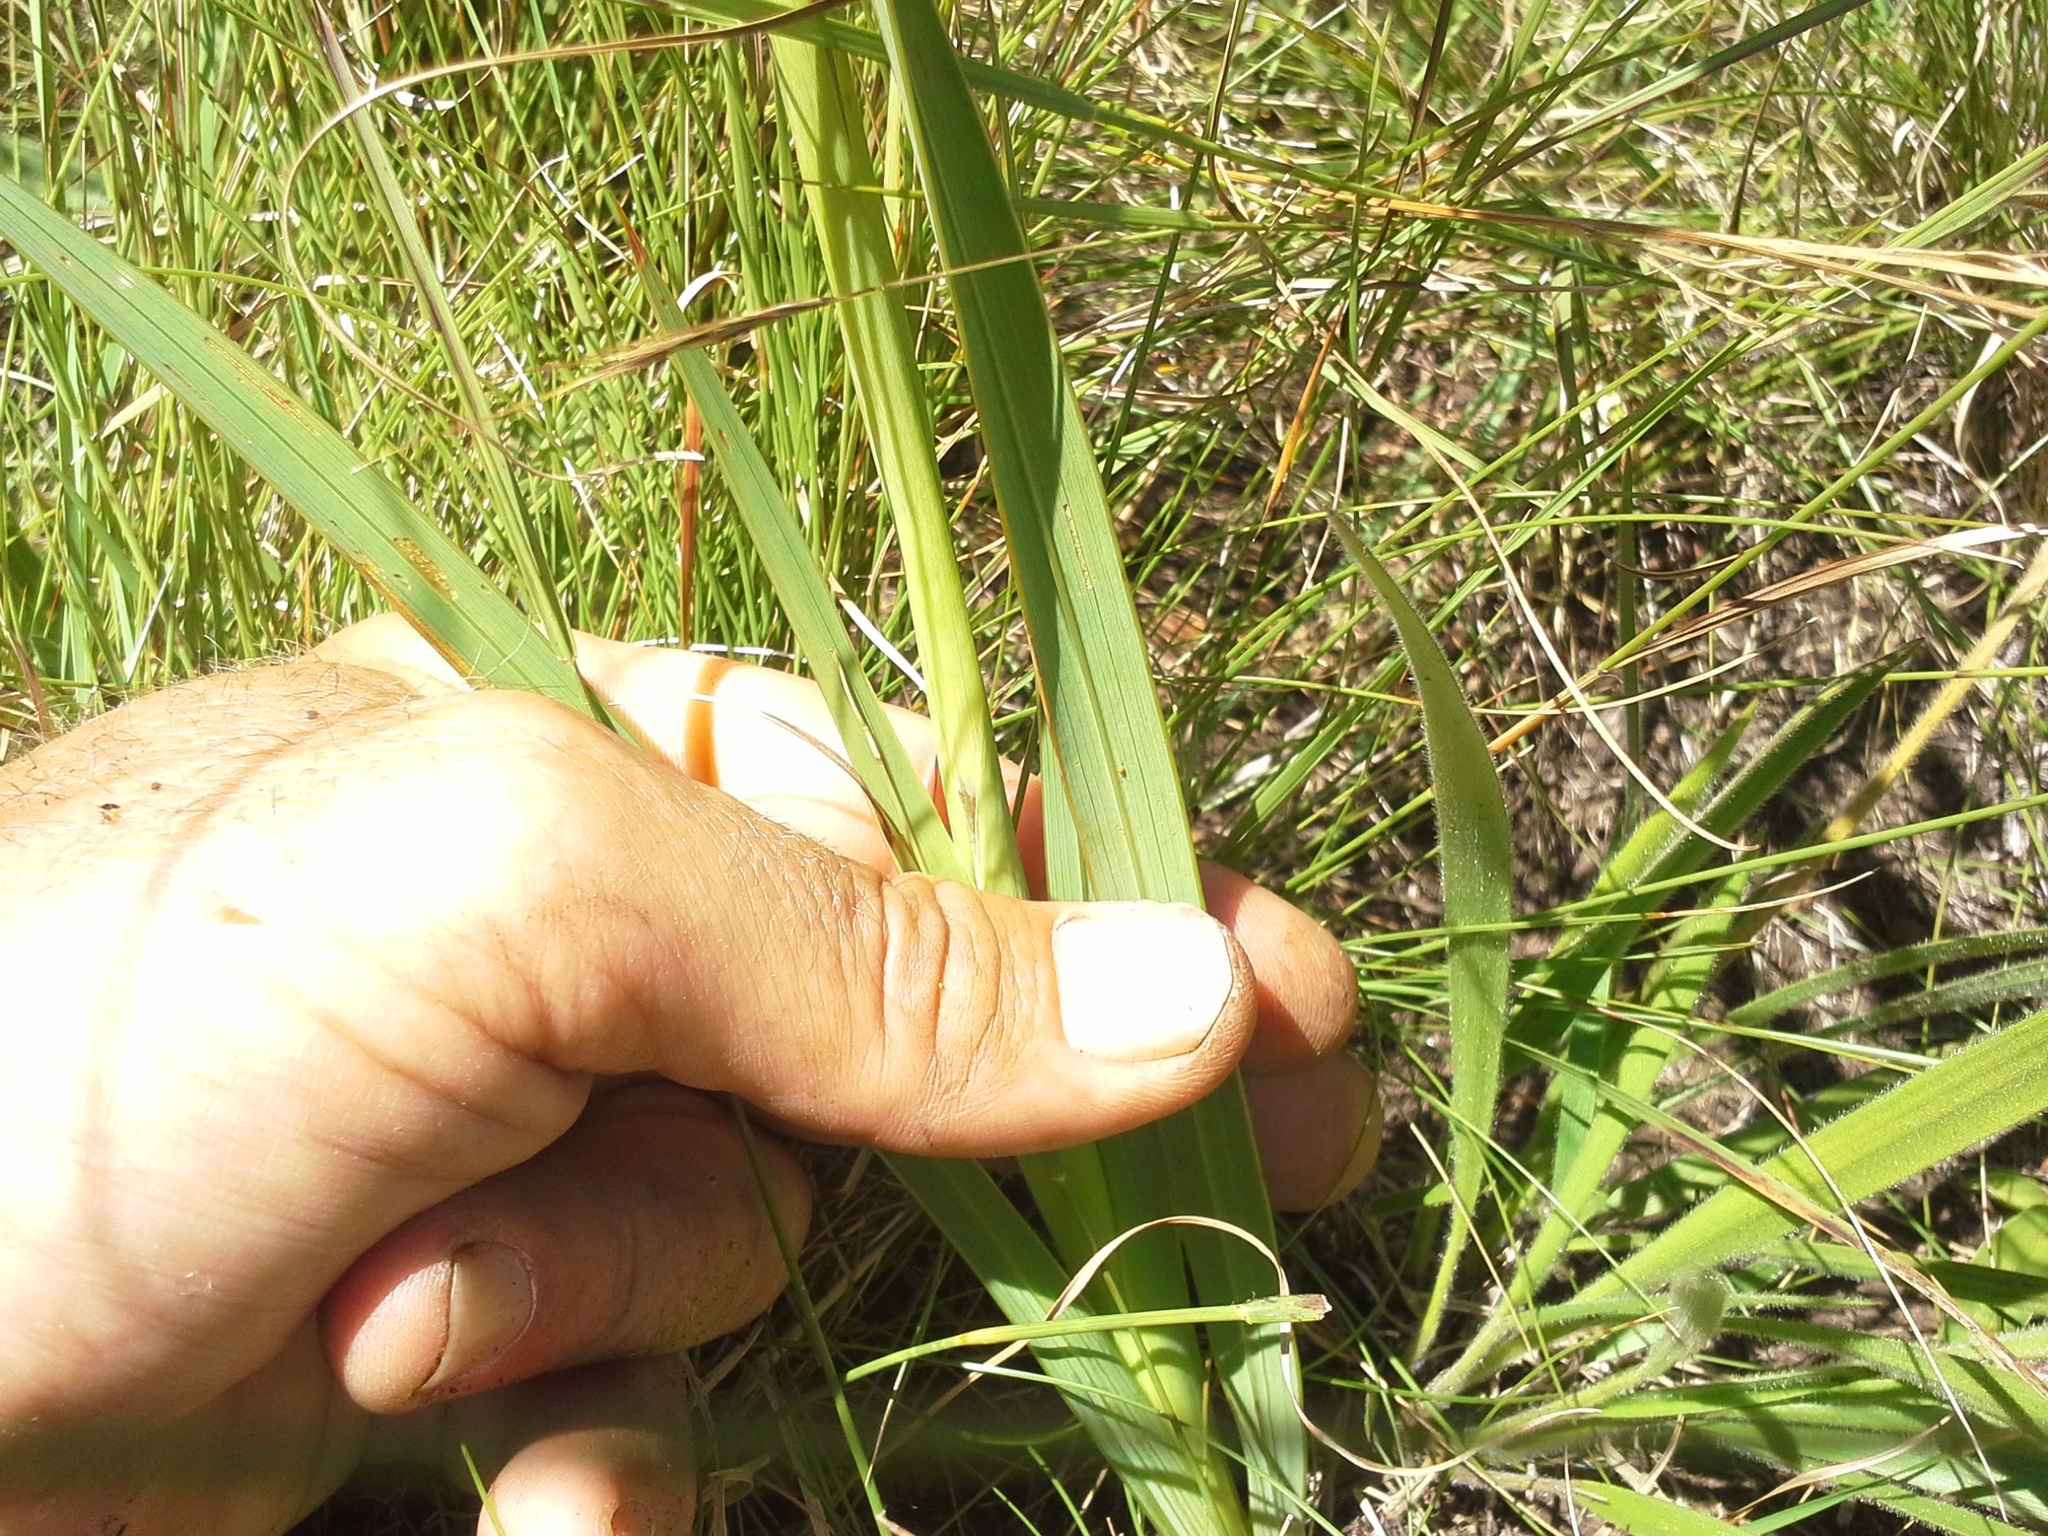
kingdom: Plantae
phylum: Tracheophyta
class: Liliopsida
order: Asparagales
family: Iridaceae
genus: Gladiolus
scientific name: Gladiolus appendiculatus
